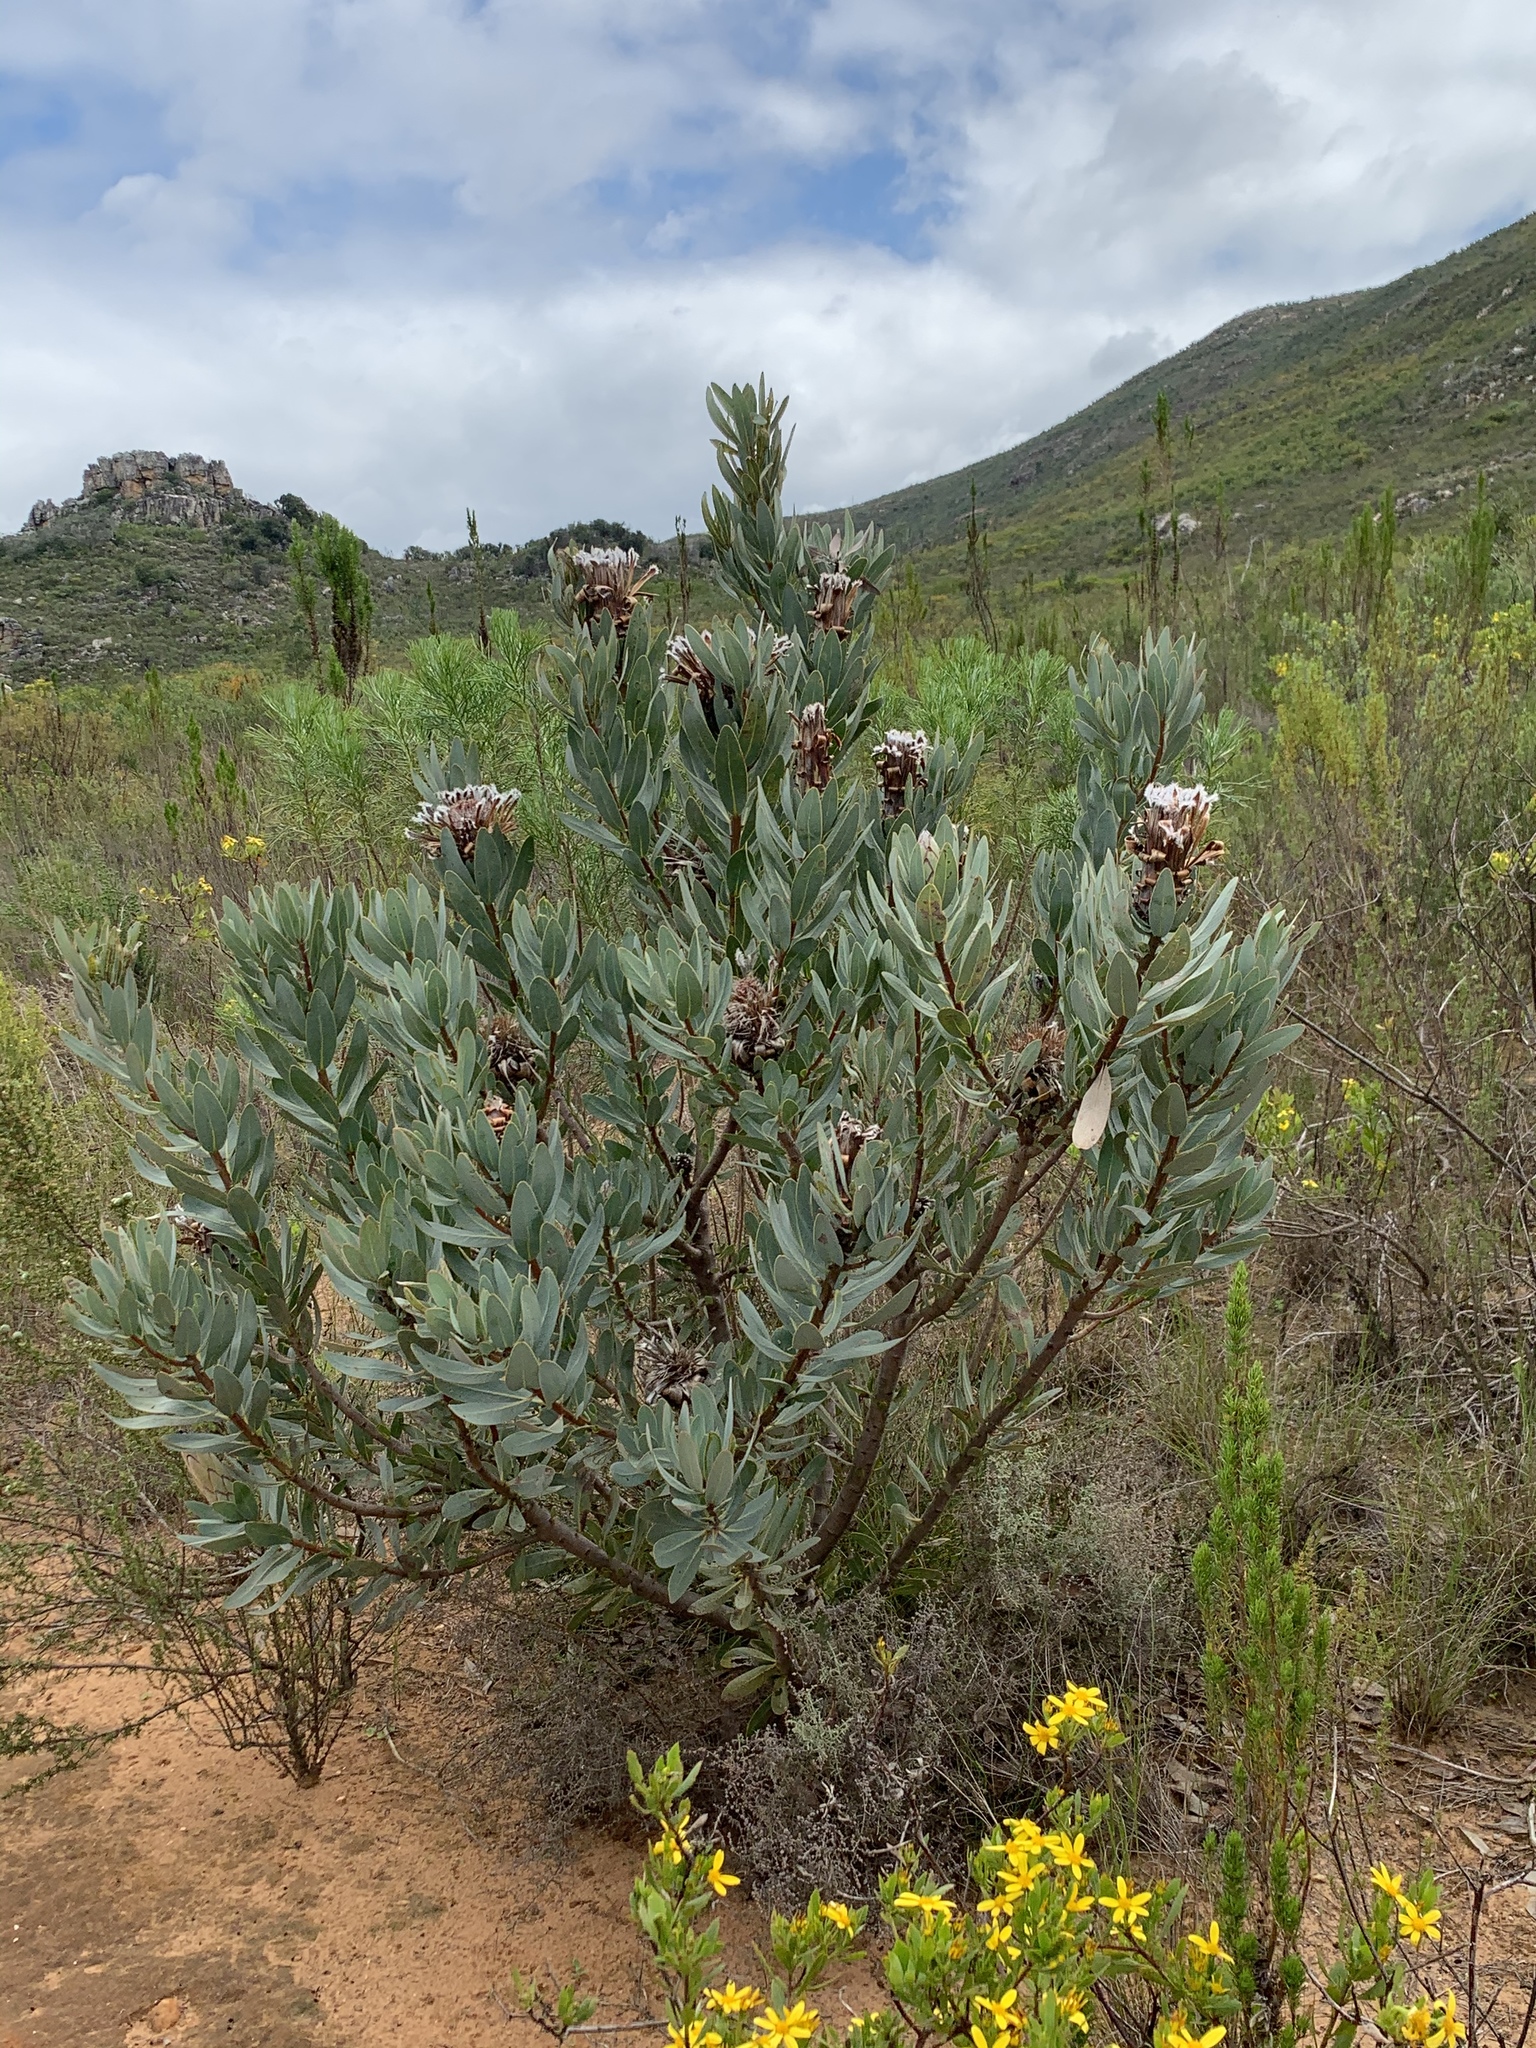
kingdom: Plantae
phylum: Tracheophyta
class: Magnoliopsida
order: Proteales
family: Proteaceae
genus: Protea
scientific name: Protea laurifolia
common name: Grey-leaf sugarbsh
